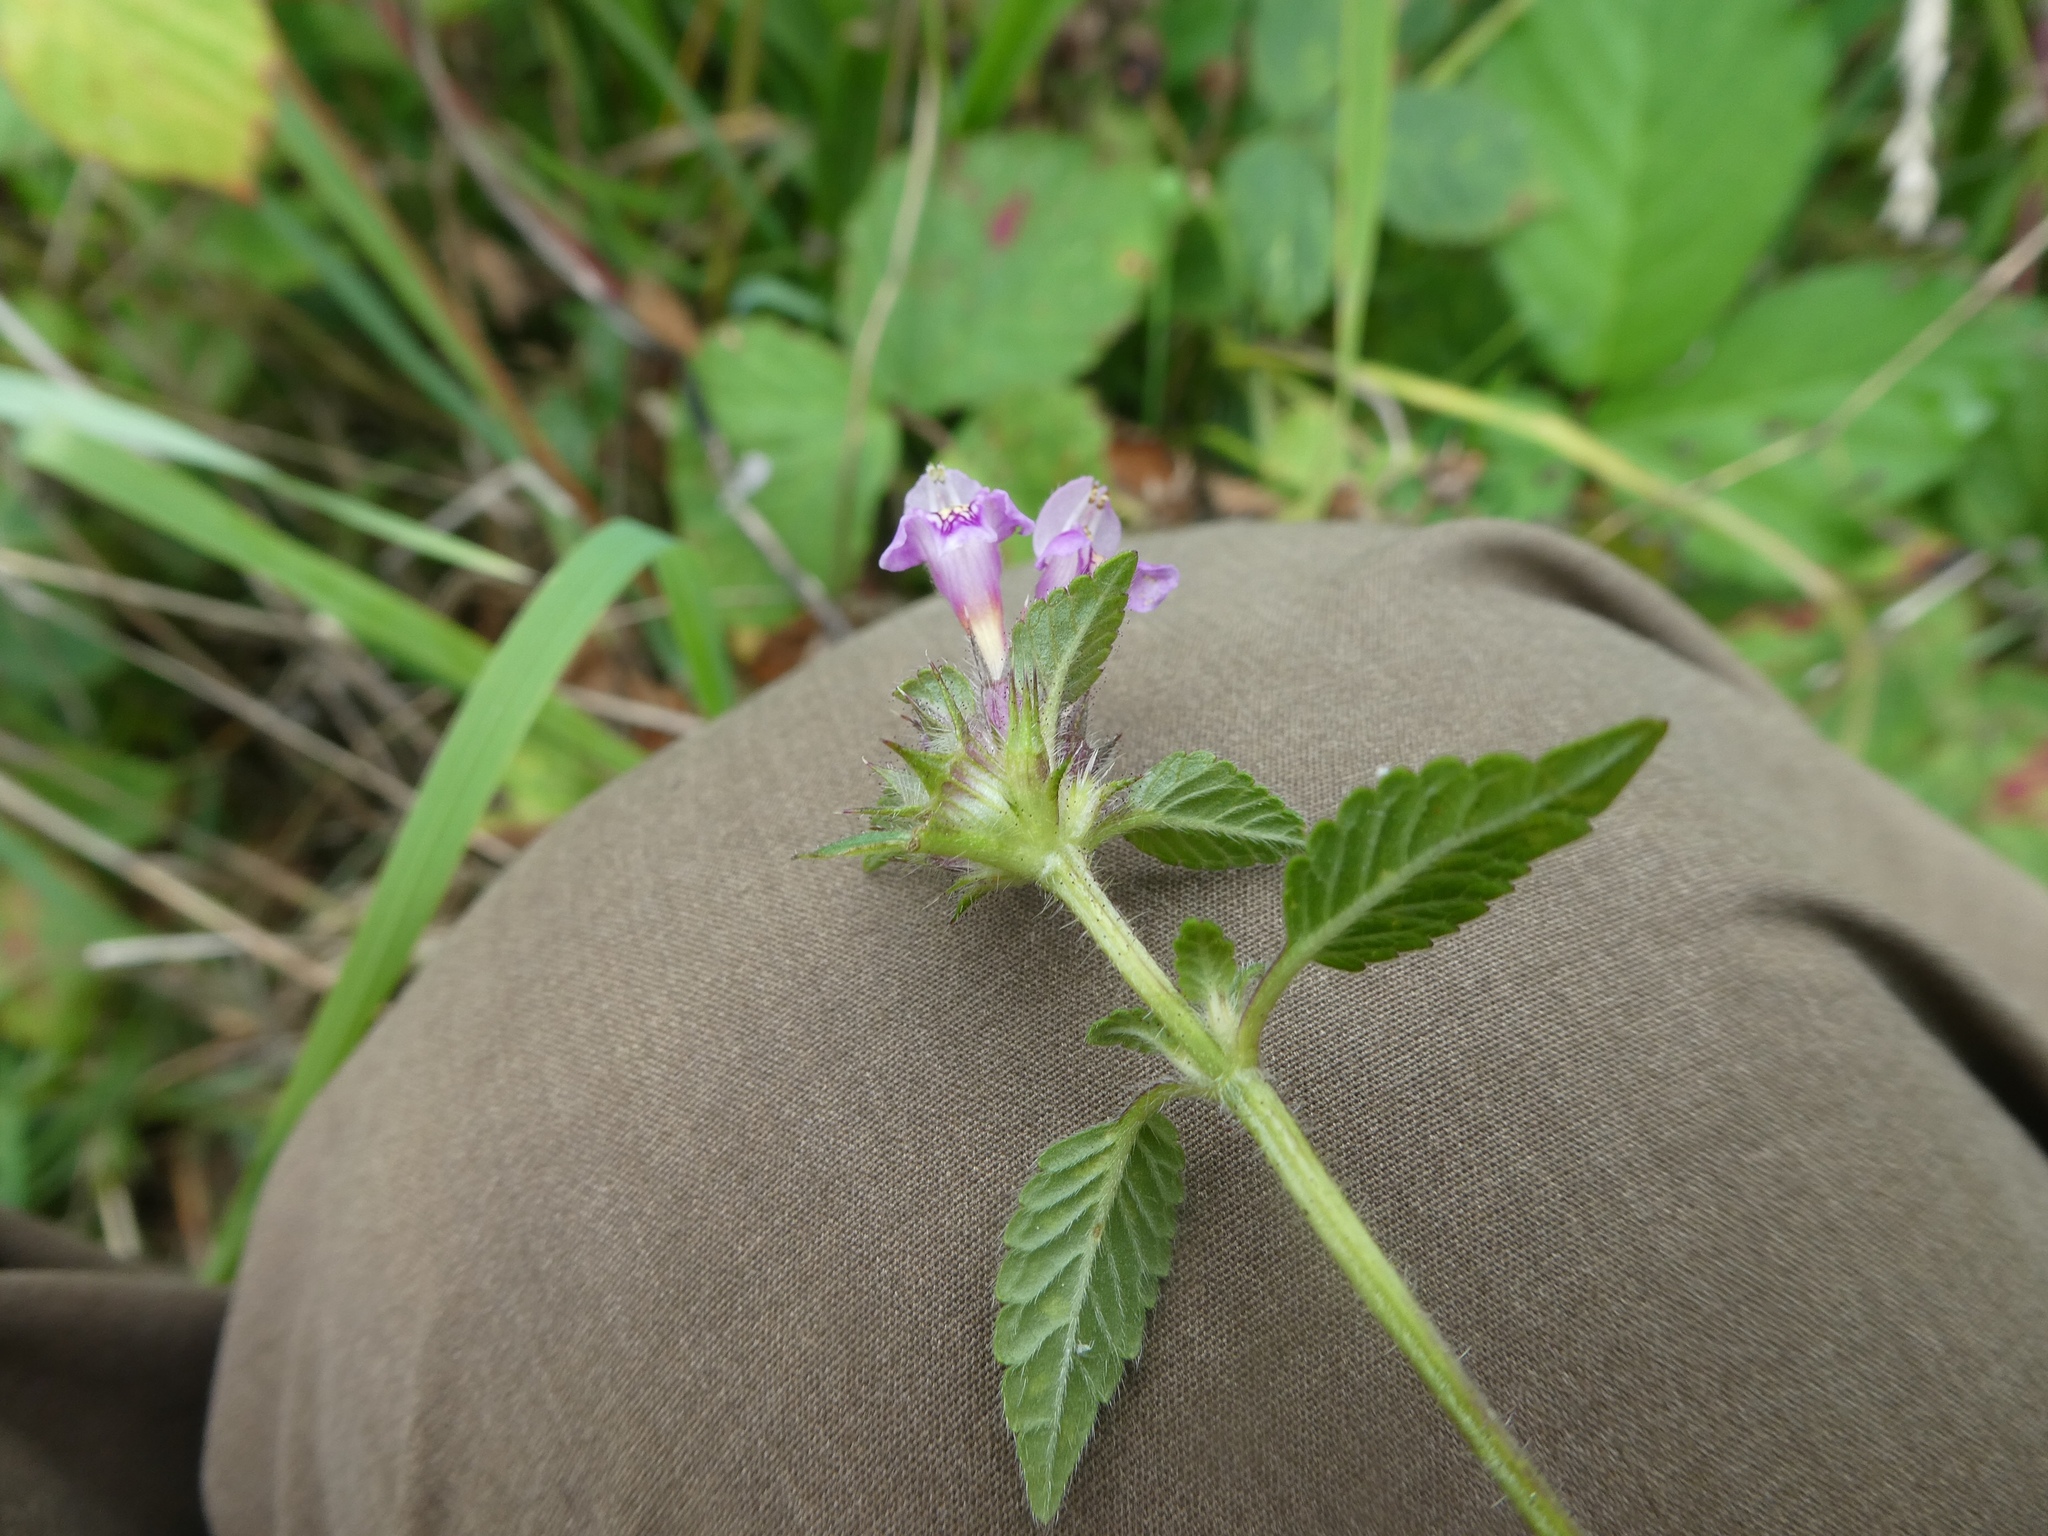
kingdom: Plantae
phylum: Tracheophyta
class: Magnoliopsida
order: Lamiales
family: Lamiaceae
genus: Galeopsis
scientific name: Galeopsis tetrahit
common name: Common hemp-nettle
